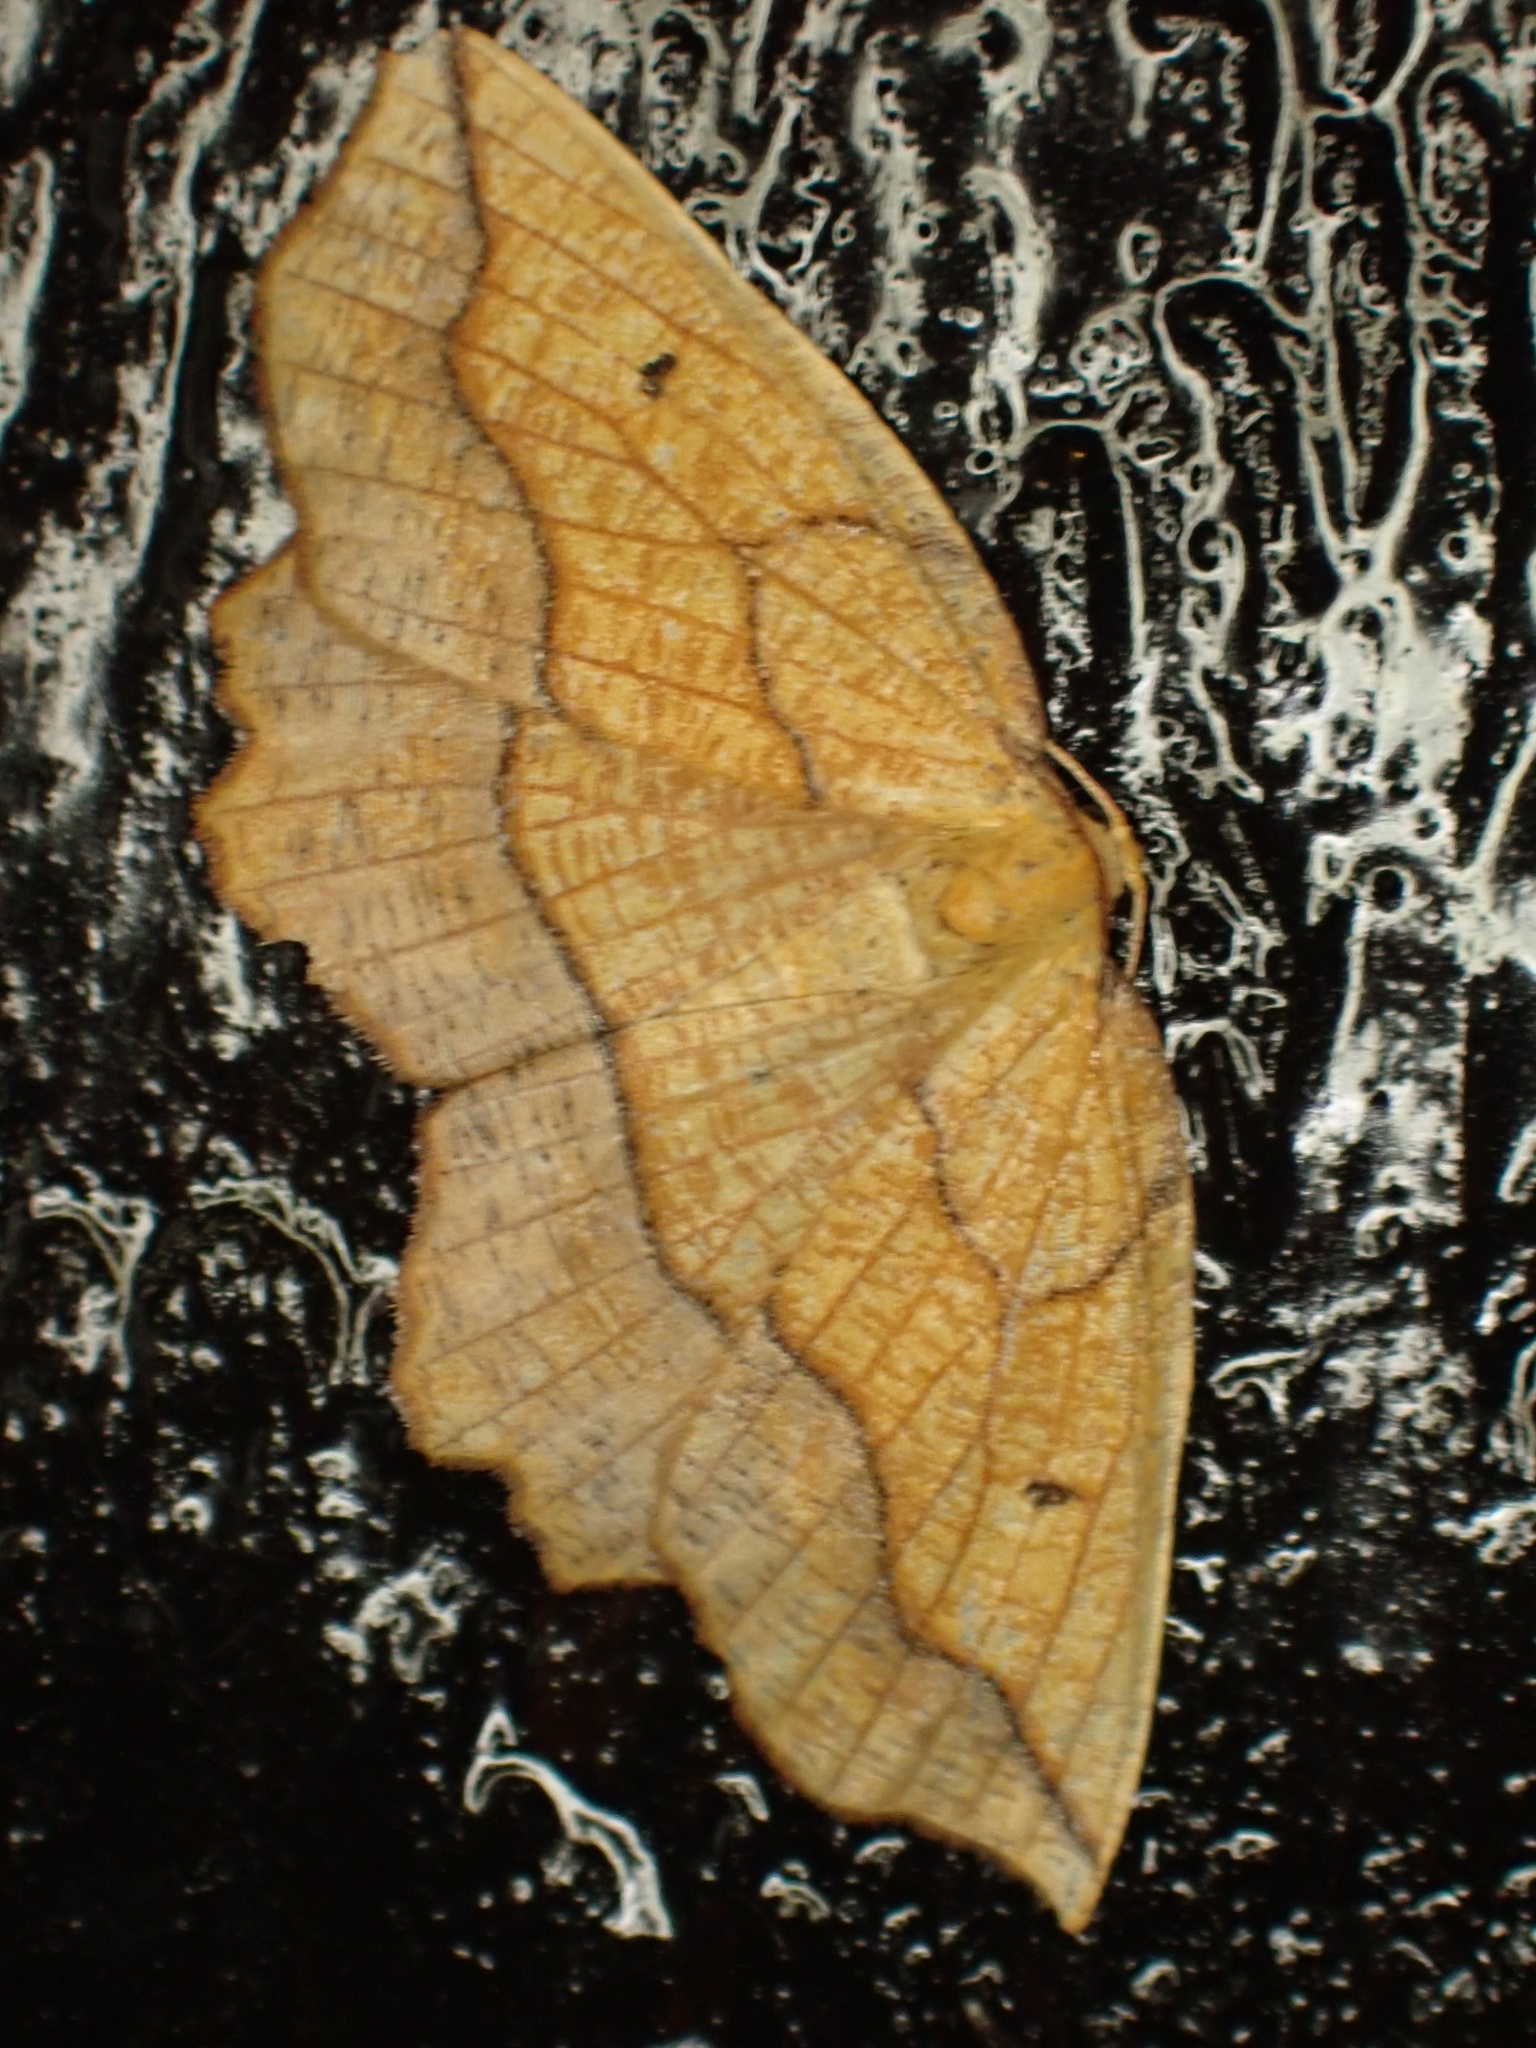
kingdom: Animalia
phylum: Arthropoda
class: Insecta
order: Lepidoptera
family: Geometridae
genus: Epione
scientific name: Epione repandaria
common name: Bordered beauty
